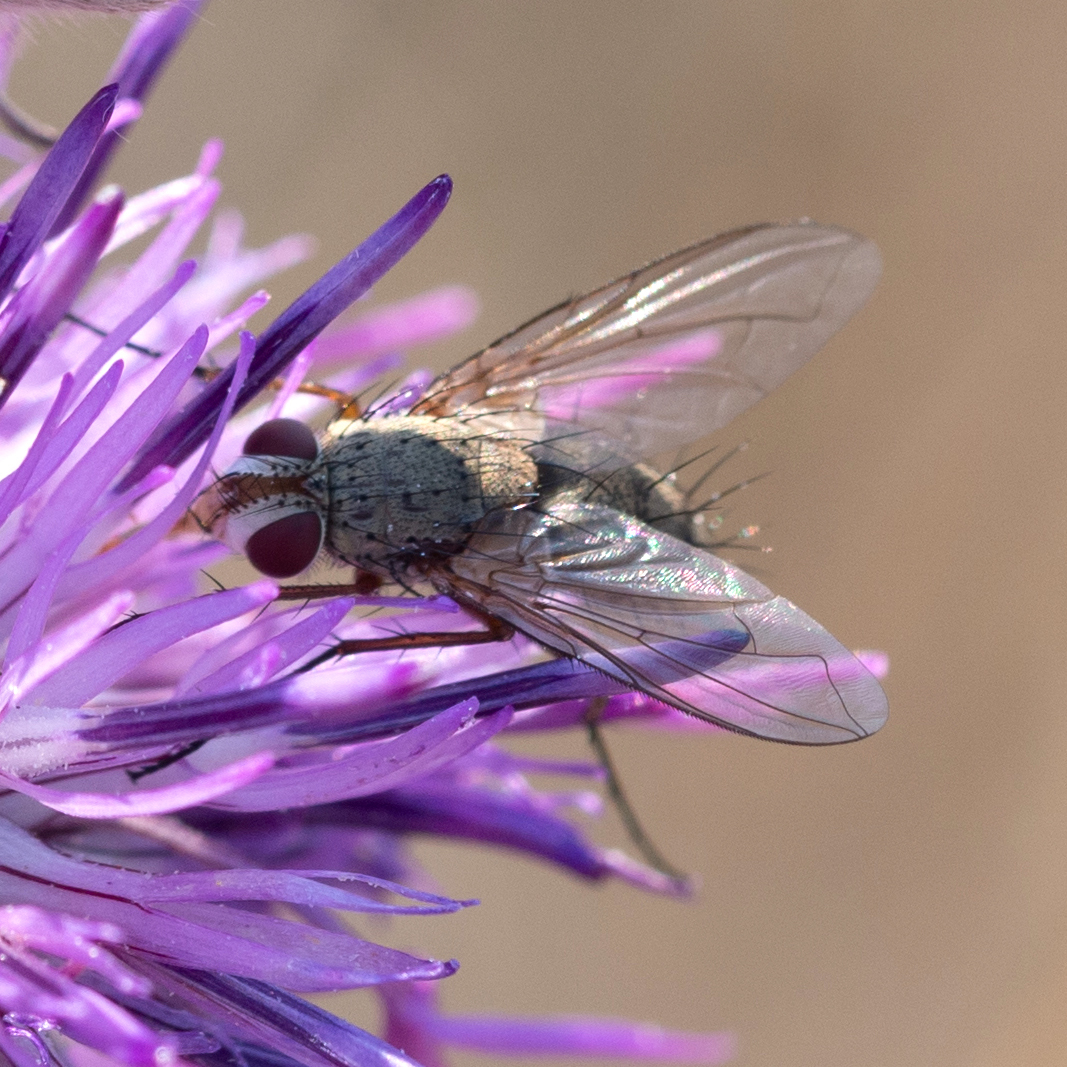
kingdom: Animalia
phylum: Arthropoda
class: Insecta
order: Diptera
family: Tachinidae
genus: Prosena
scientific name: Prosena siberita
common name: Parasitic fly
